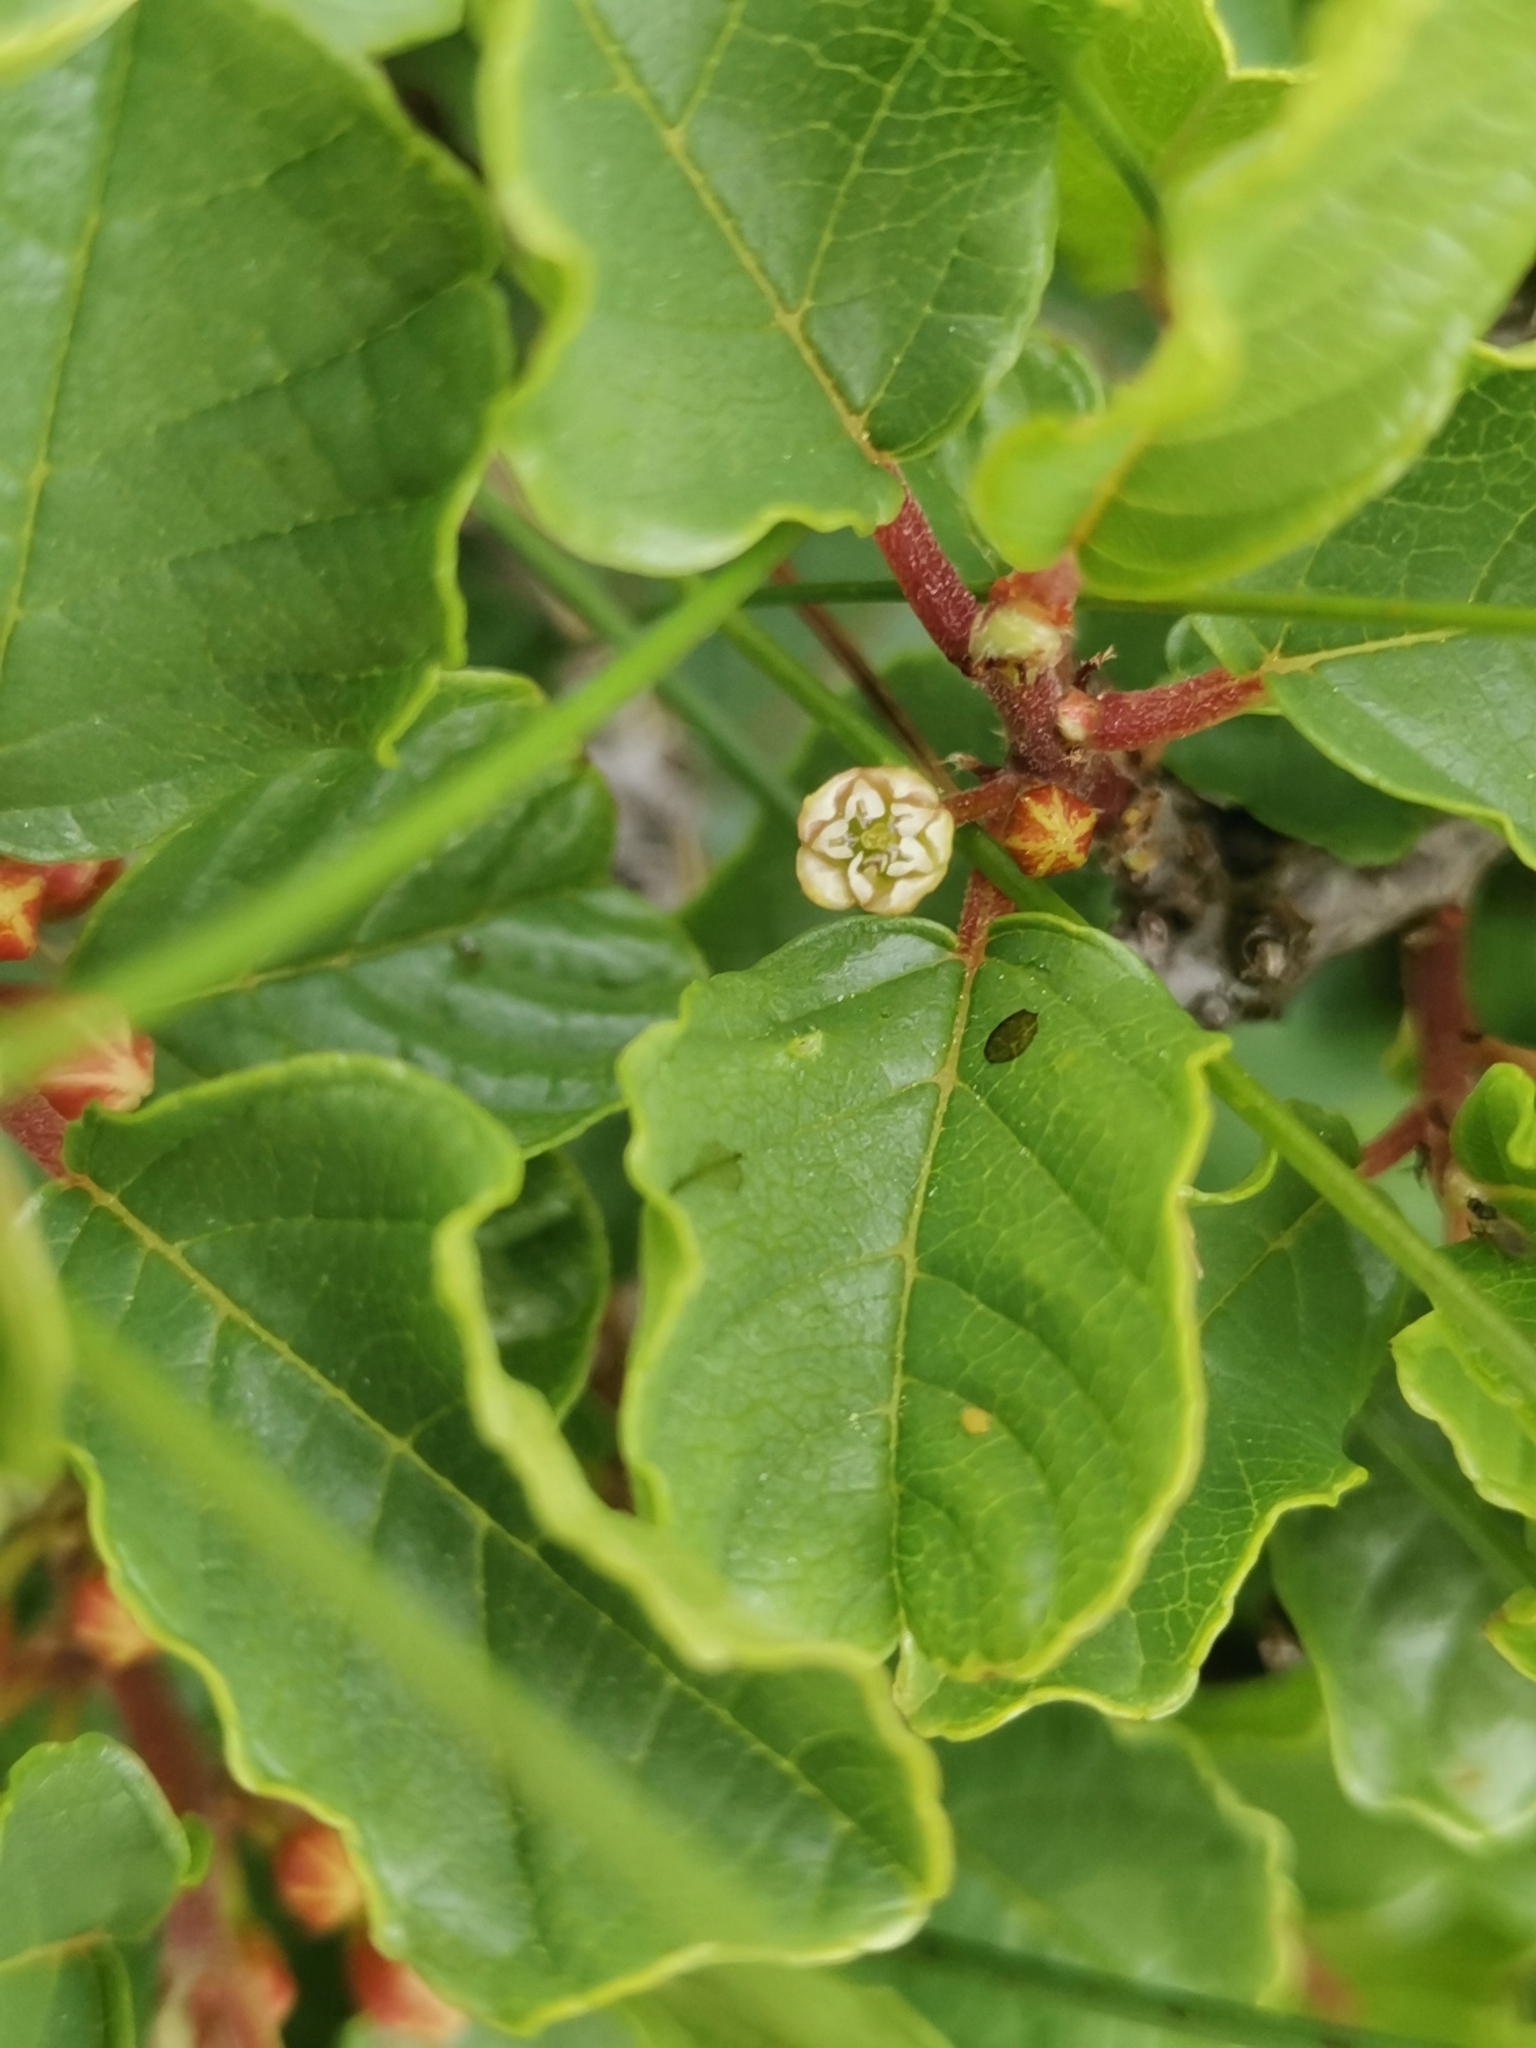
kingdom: Plantae
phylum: Tracheophyta
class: Magnoliopsida
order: Rosales
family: Rhamnaceae
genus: Frangula
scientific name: Frangula rupestris
